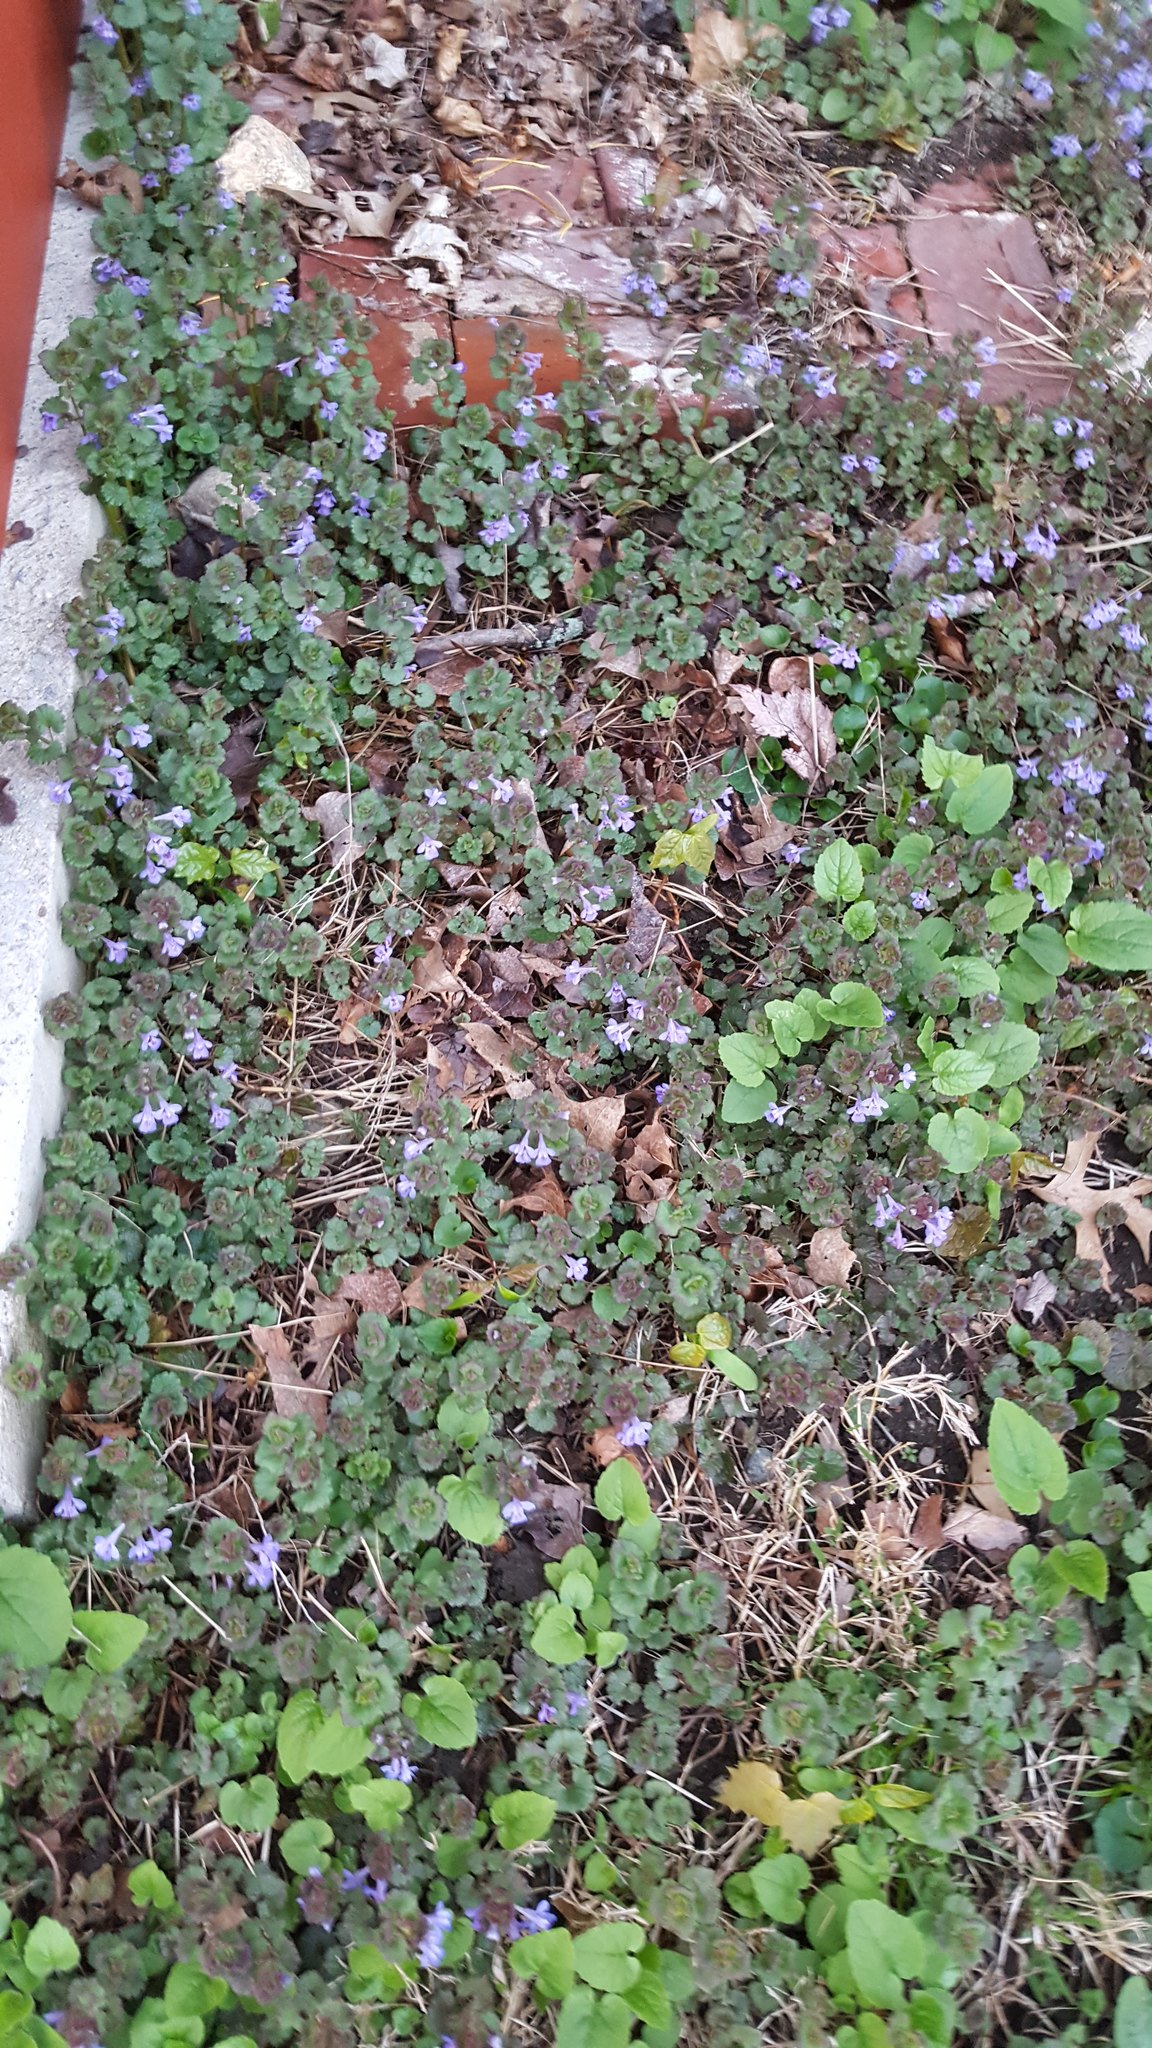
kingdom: Plantae
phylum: Tracheophyta
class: Magnoliopsida
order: Lamiales
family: Lamiaceae
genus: Glechoma
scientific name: Glechoma hederacea
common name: Ground ivy
